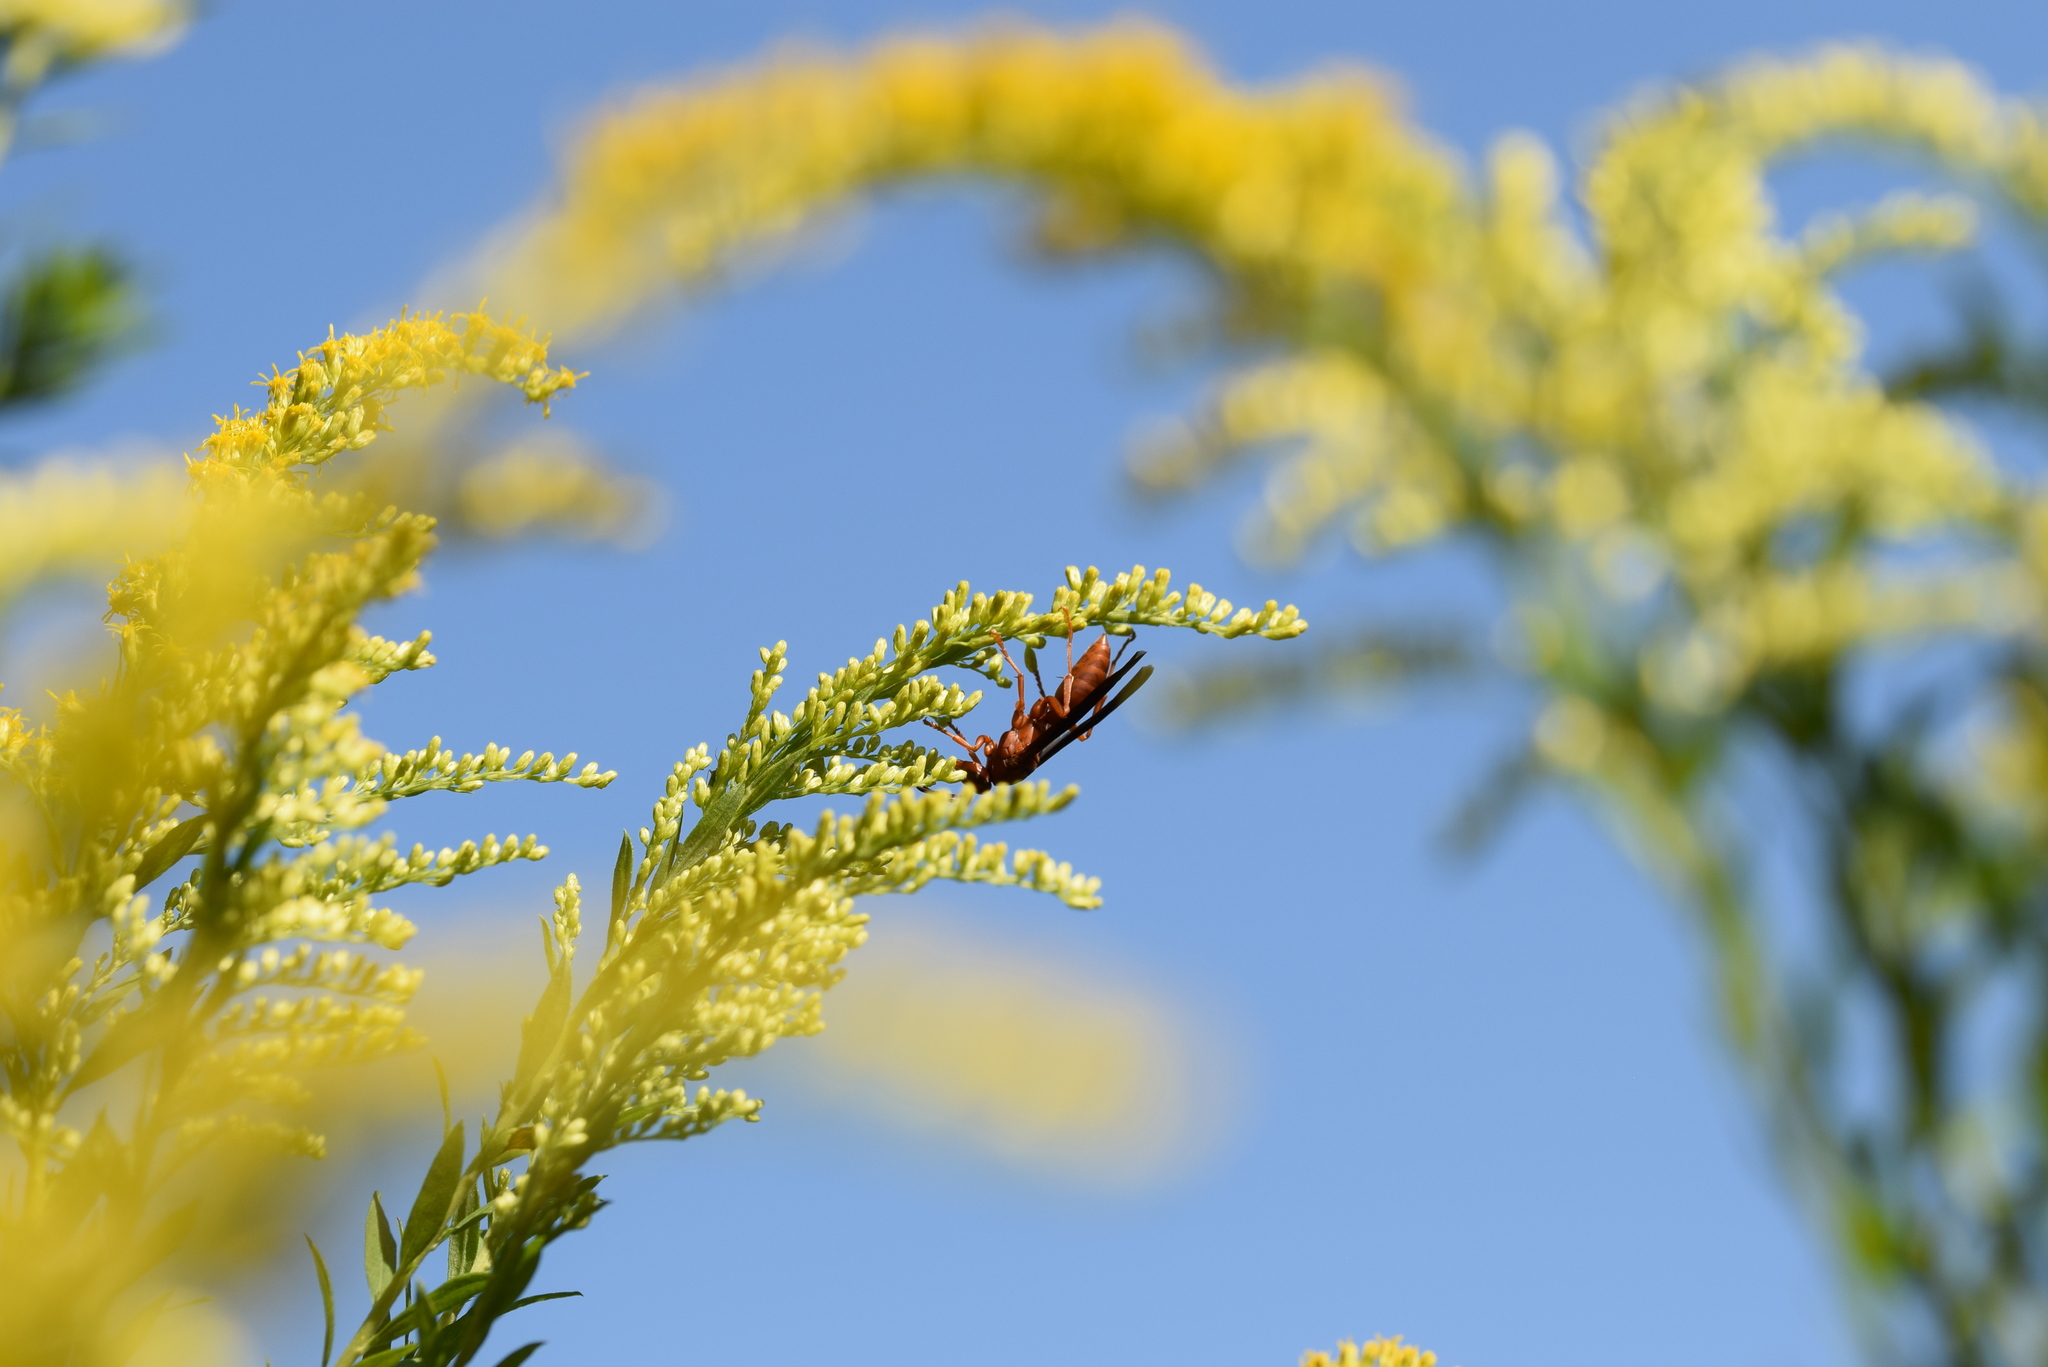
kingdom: Animalia
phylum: Arthropoda
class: Insecta
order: Hymenoptera
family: Eumenidae
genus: Polistes
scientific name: Polistes carolina
